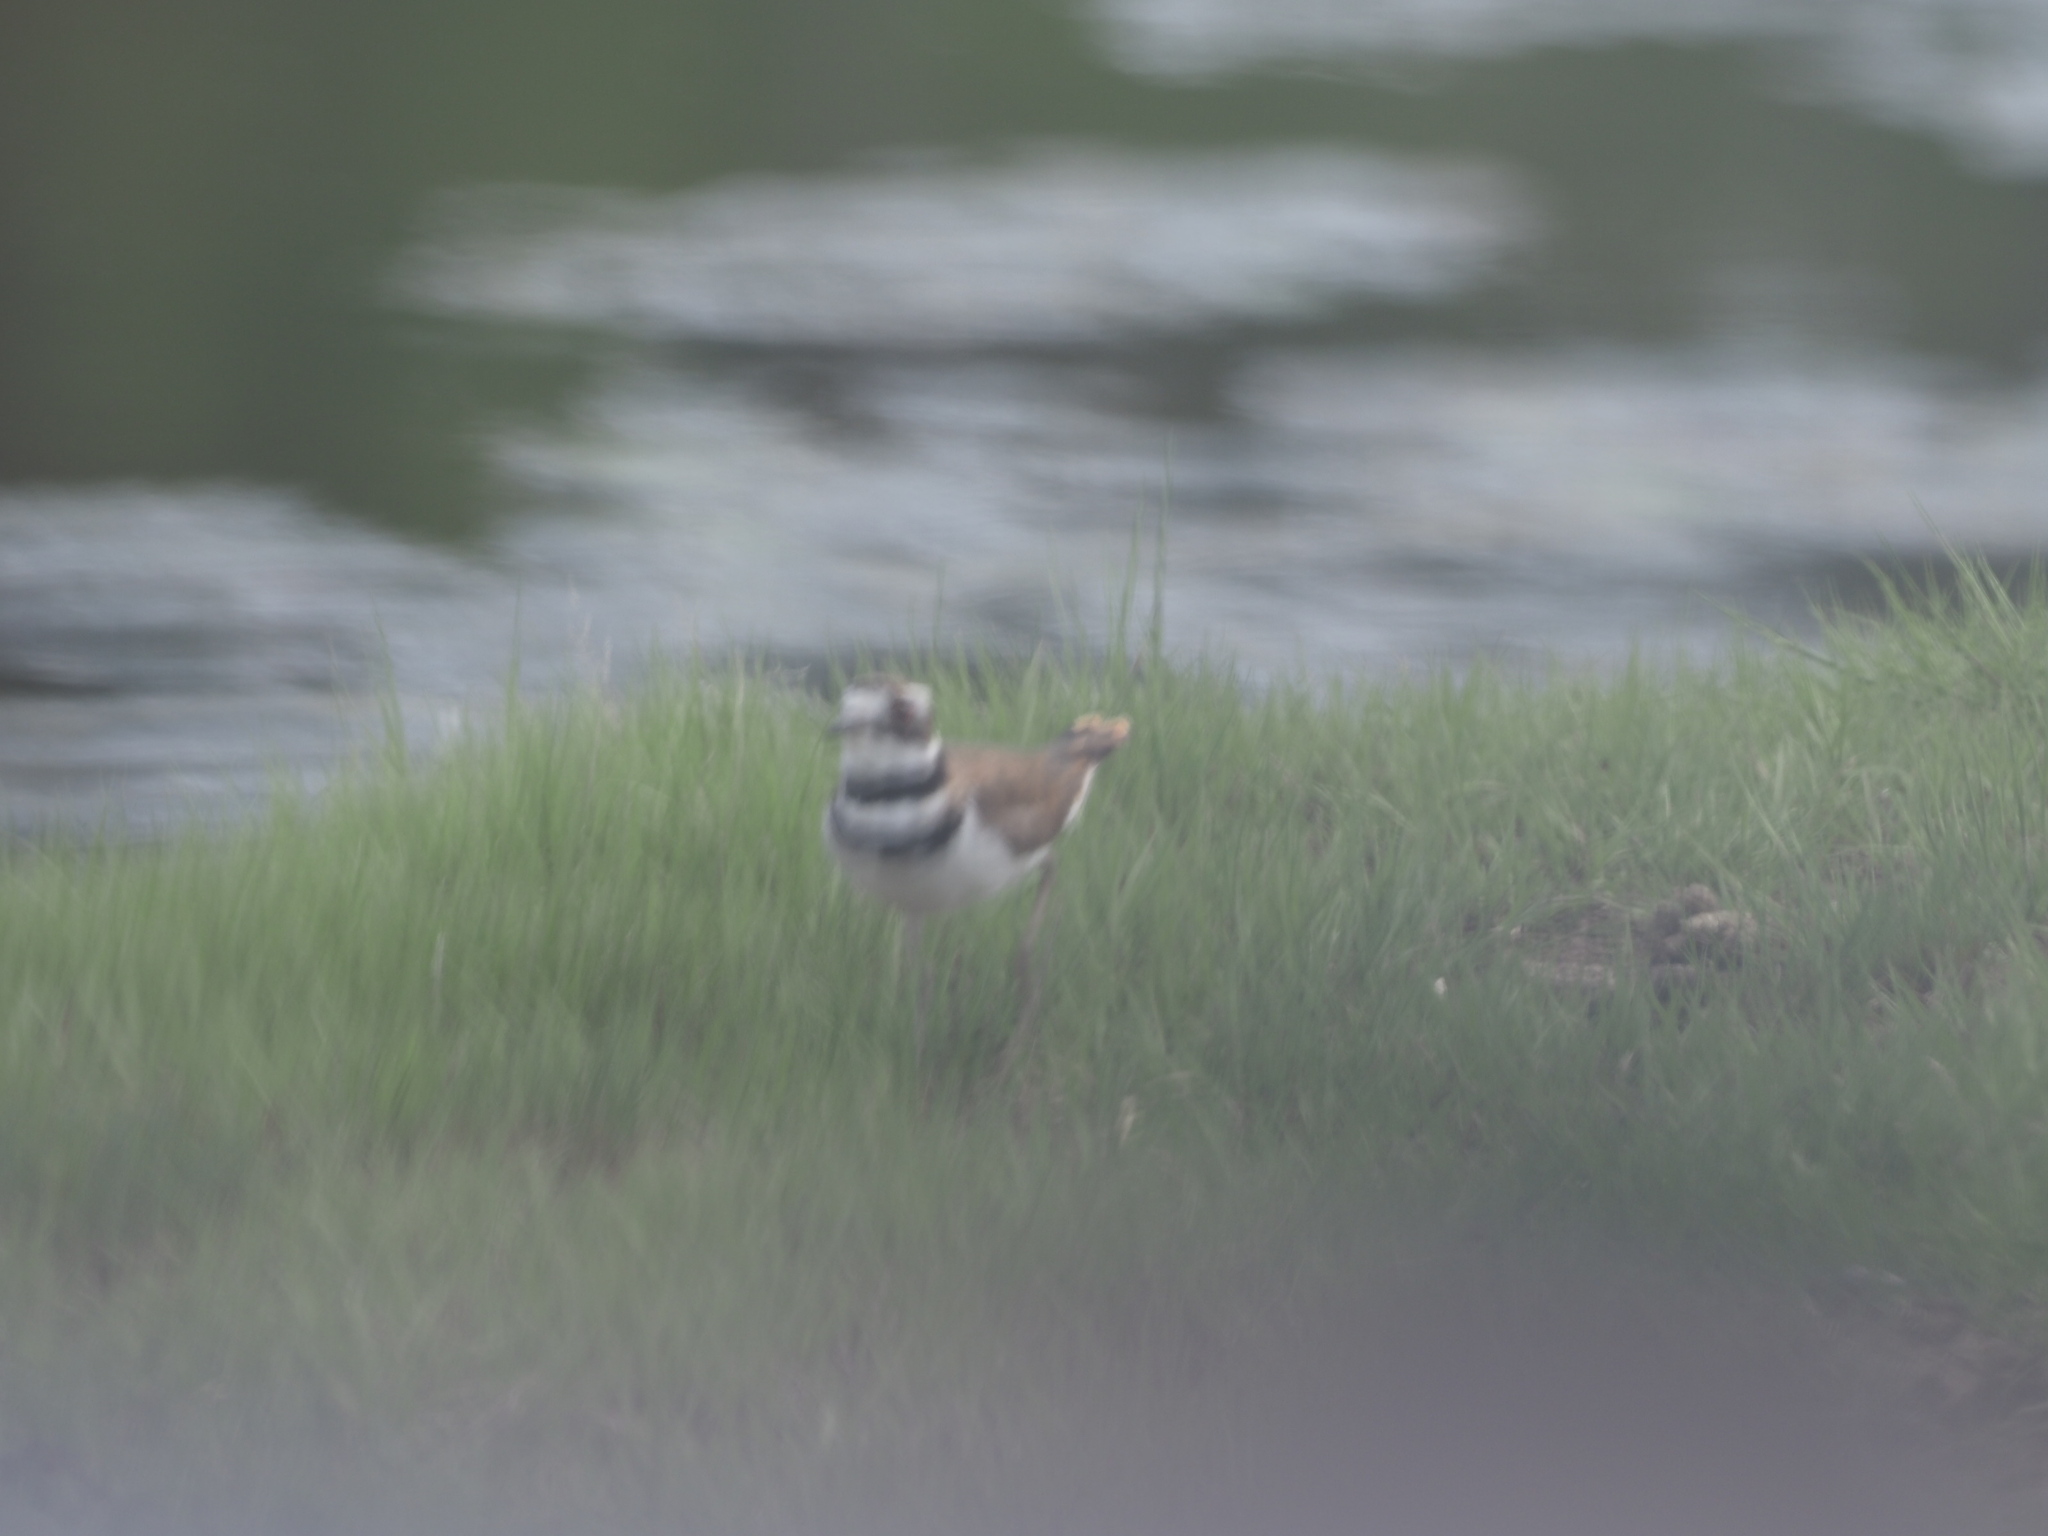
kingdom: Animalia
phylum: Chordata
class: Aves
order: Charadriiformes
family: Charadriidae
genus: Charadrius
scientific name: Charadrius vociferus
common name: Killdeer
